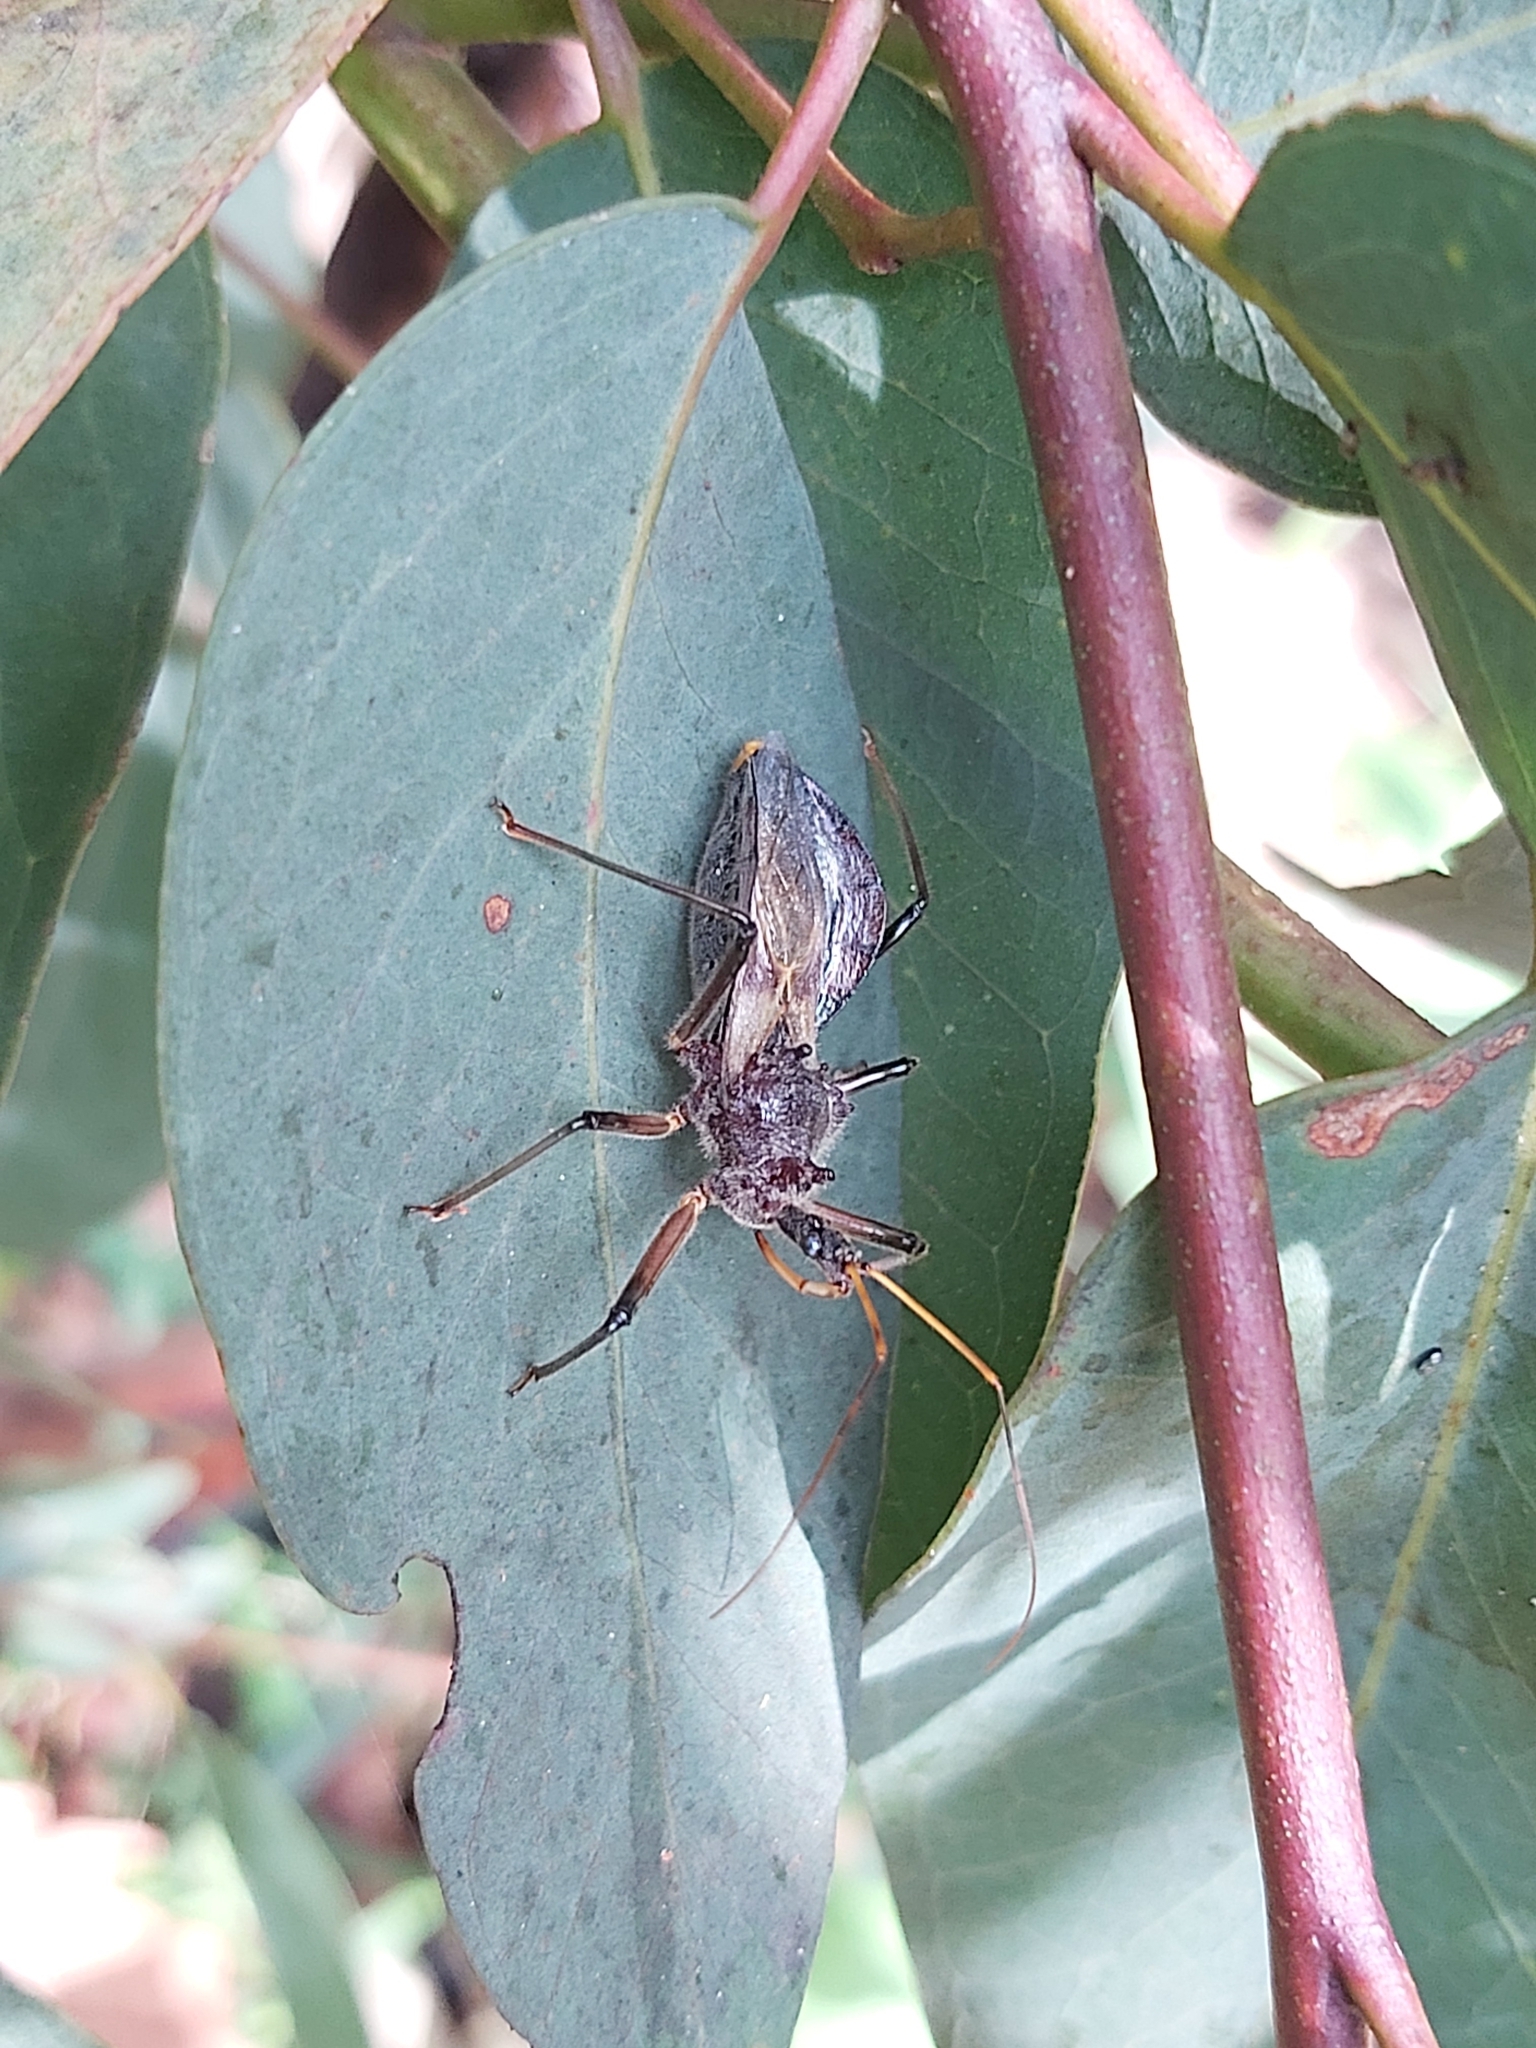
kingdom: Animalia
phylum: Arthropoda
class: Insecta
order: Hemiptera
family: Reduviidae
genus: Pristhesancus
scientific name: Pristhesancus plagipennis
